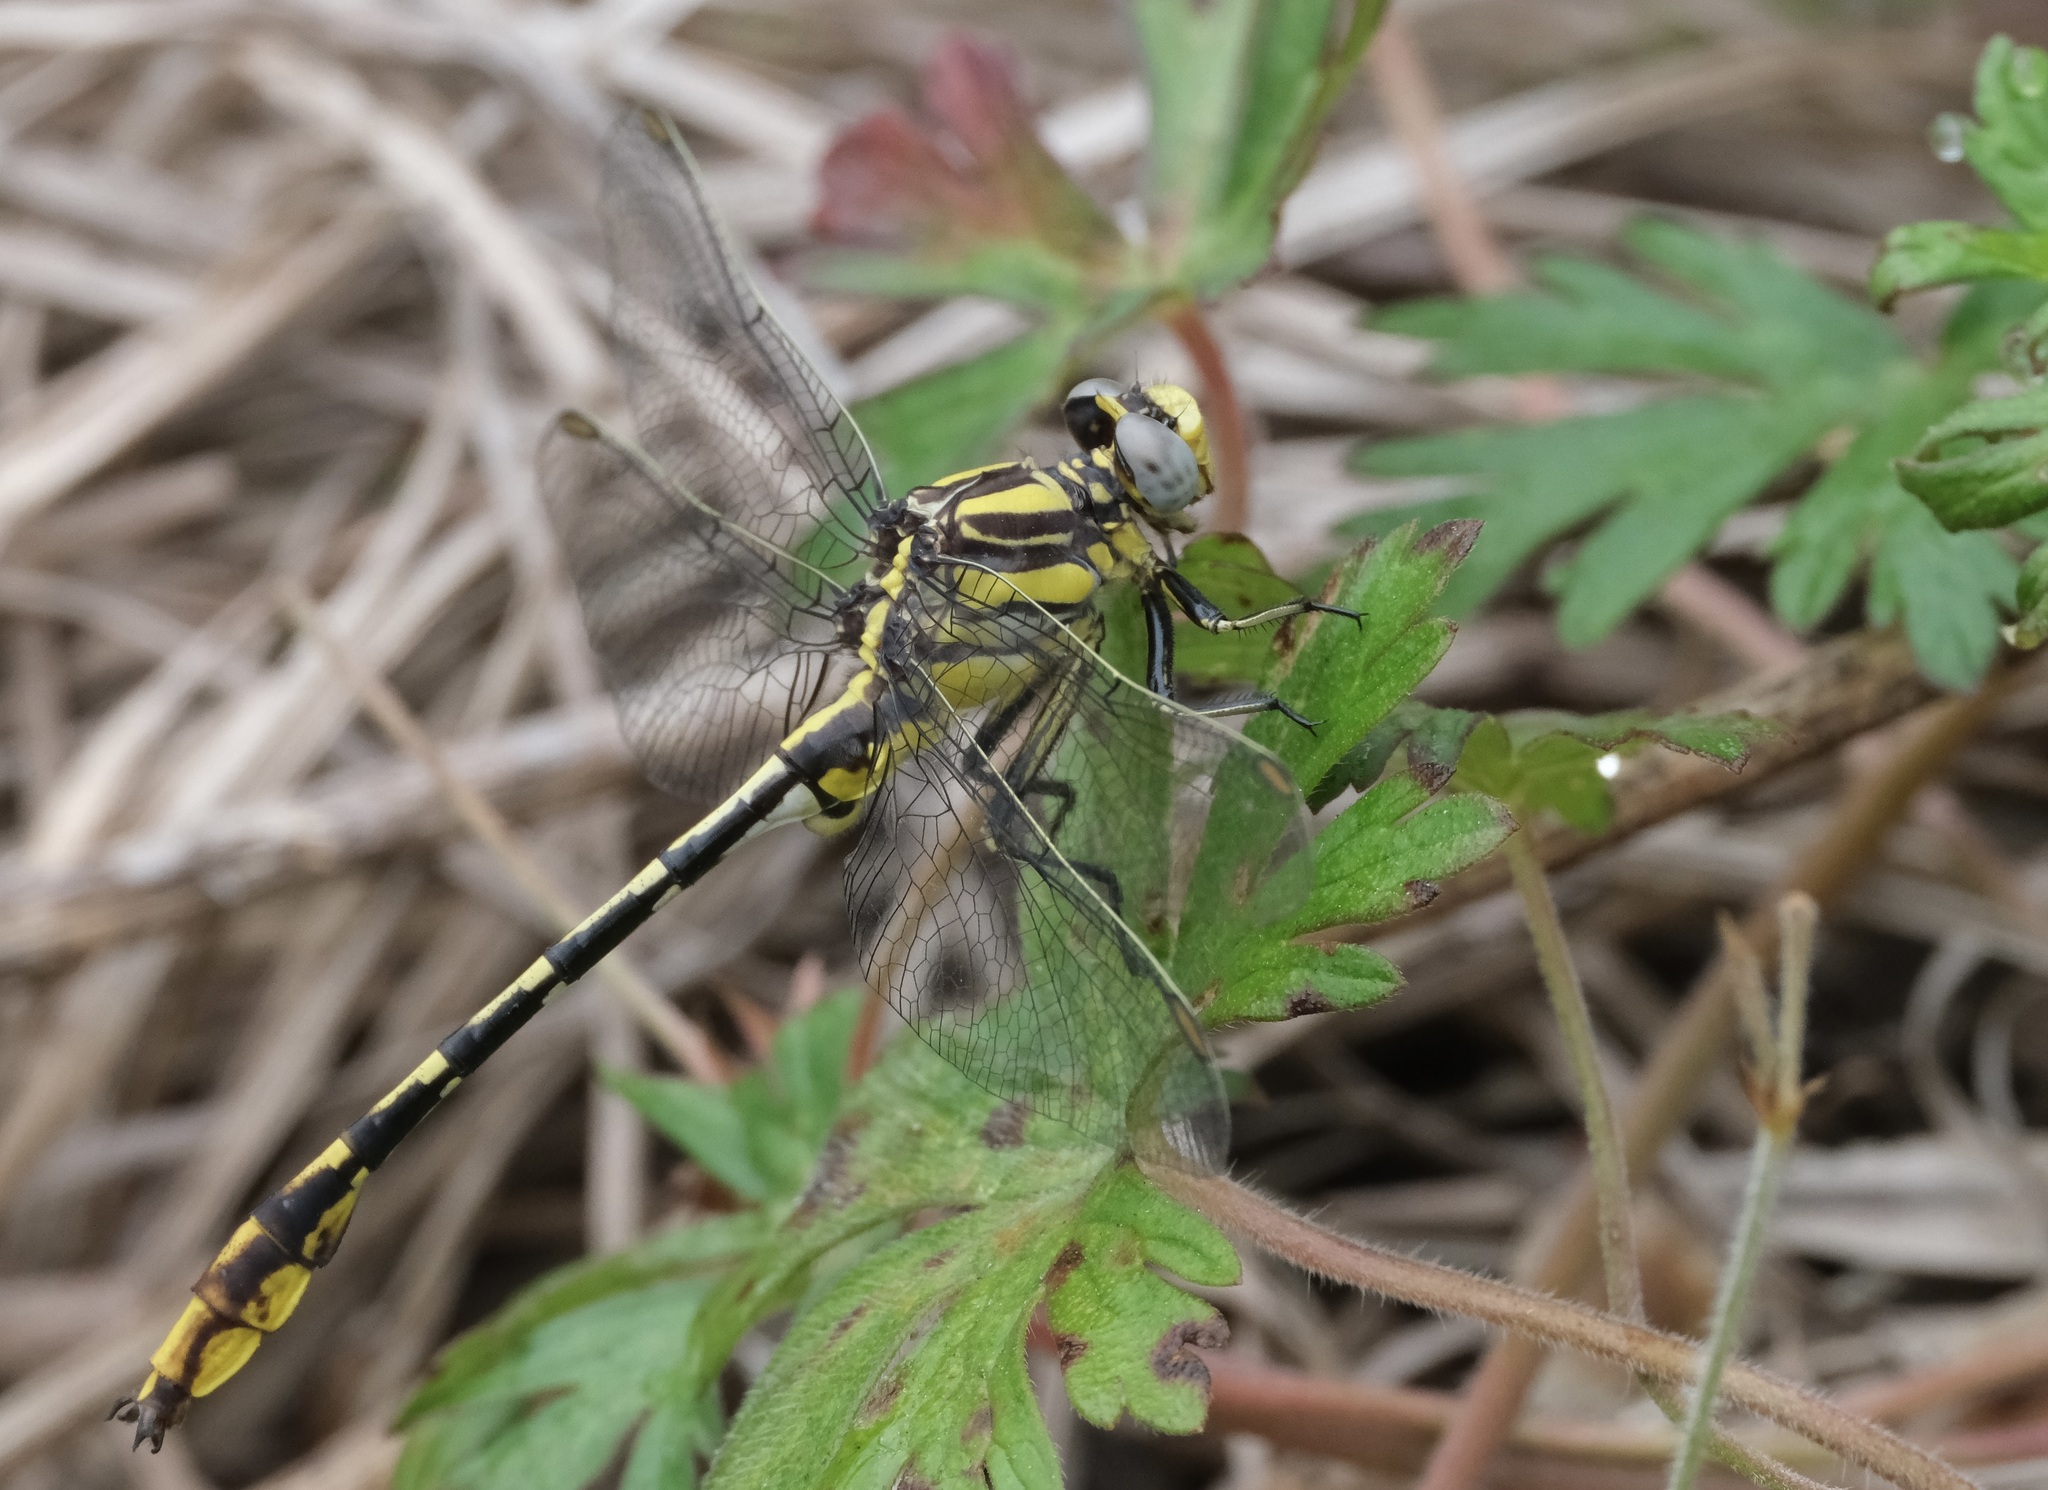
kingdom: Animalia
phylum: Arthropoda
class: Insecta
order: Odonata
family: Gomphidae
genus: Phanogomphus
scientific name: Phanogomphus militaris
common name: Sulphur-tipped clubtail
